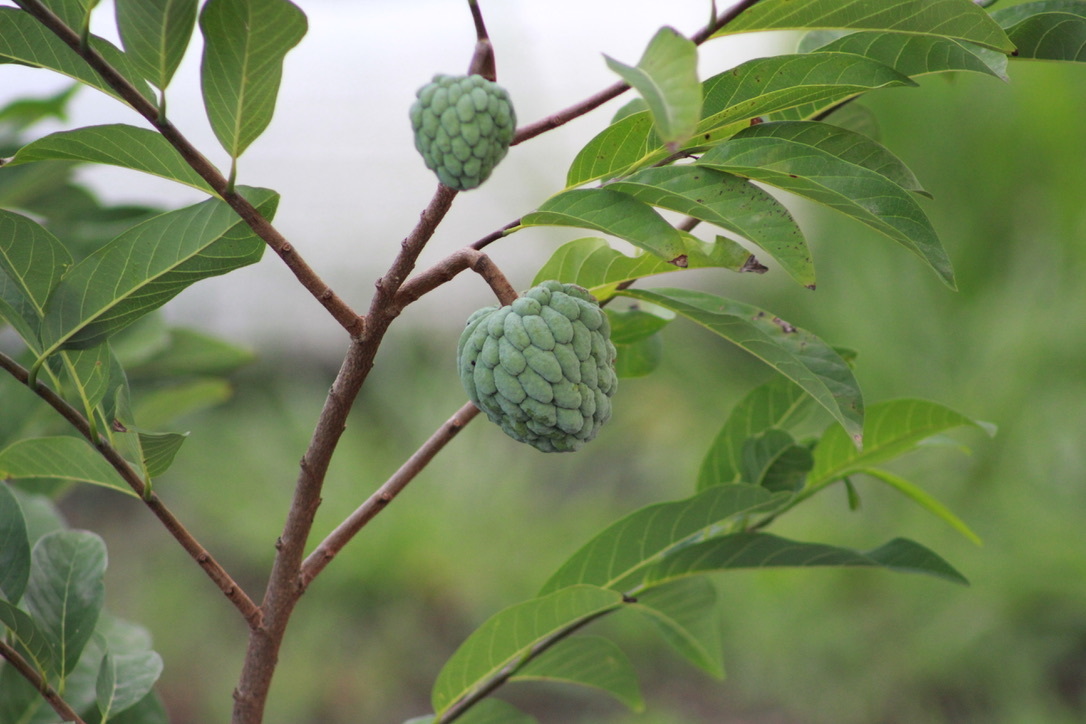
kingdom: Plantae
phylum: Tracheophyta
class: Magnoliopsida
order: Magnoliales
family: Annonaceae
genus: Annona
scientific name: Annona squamosa
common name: Custard-apple
